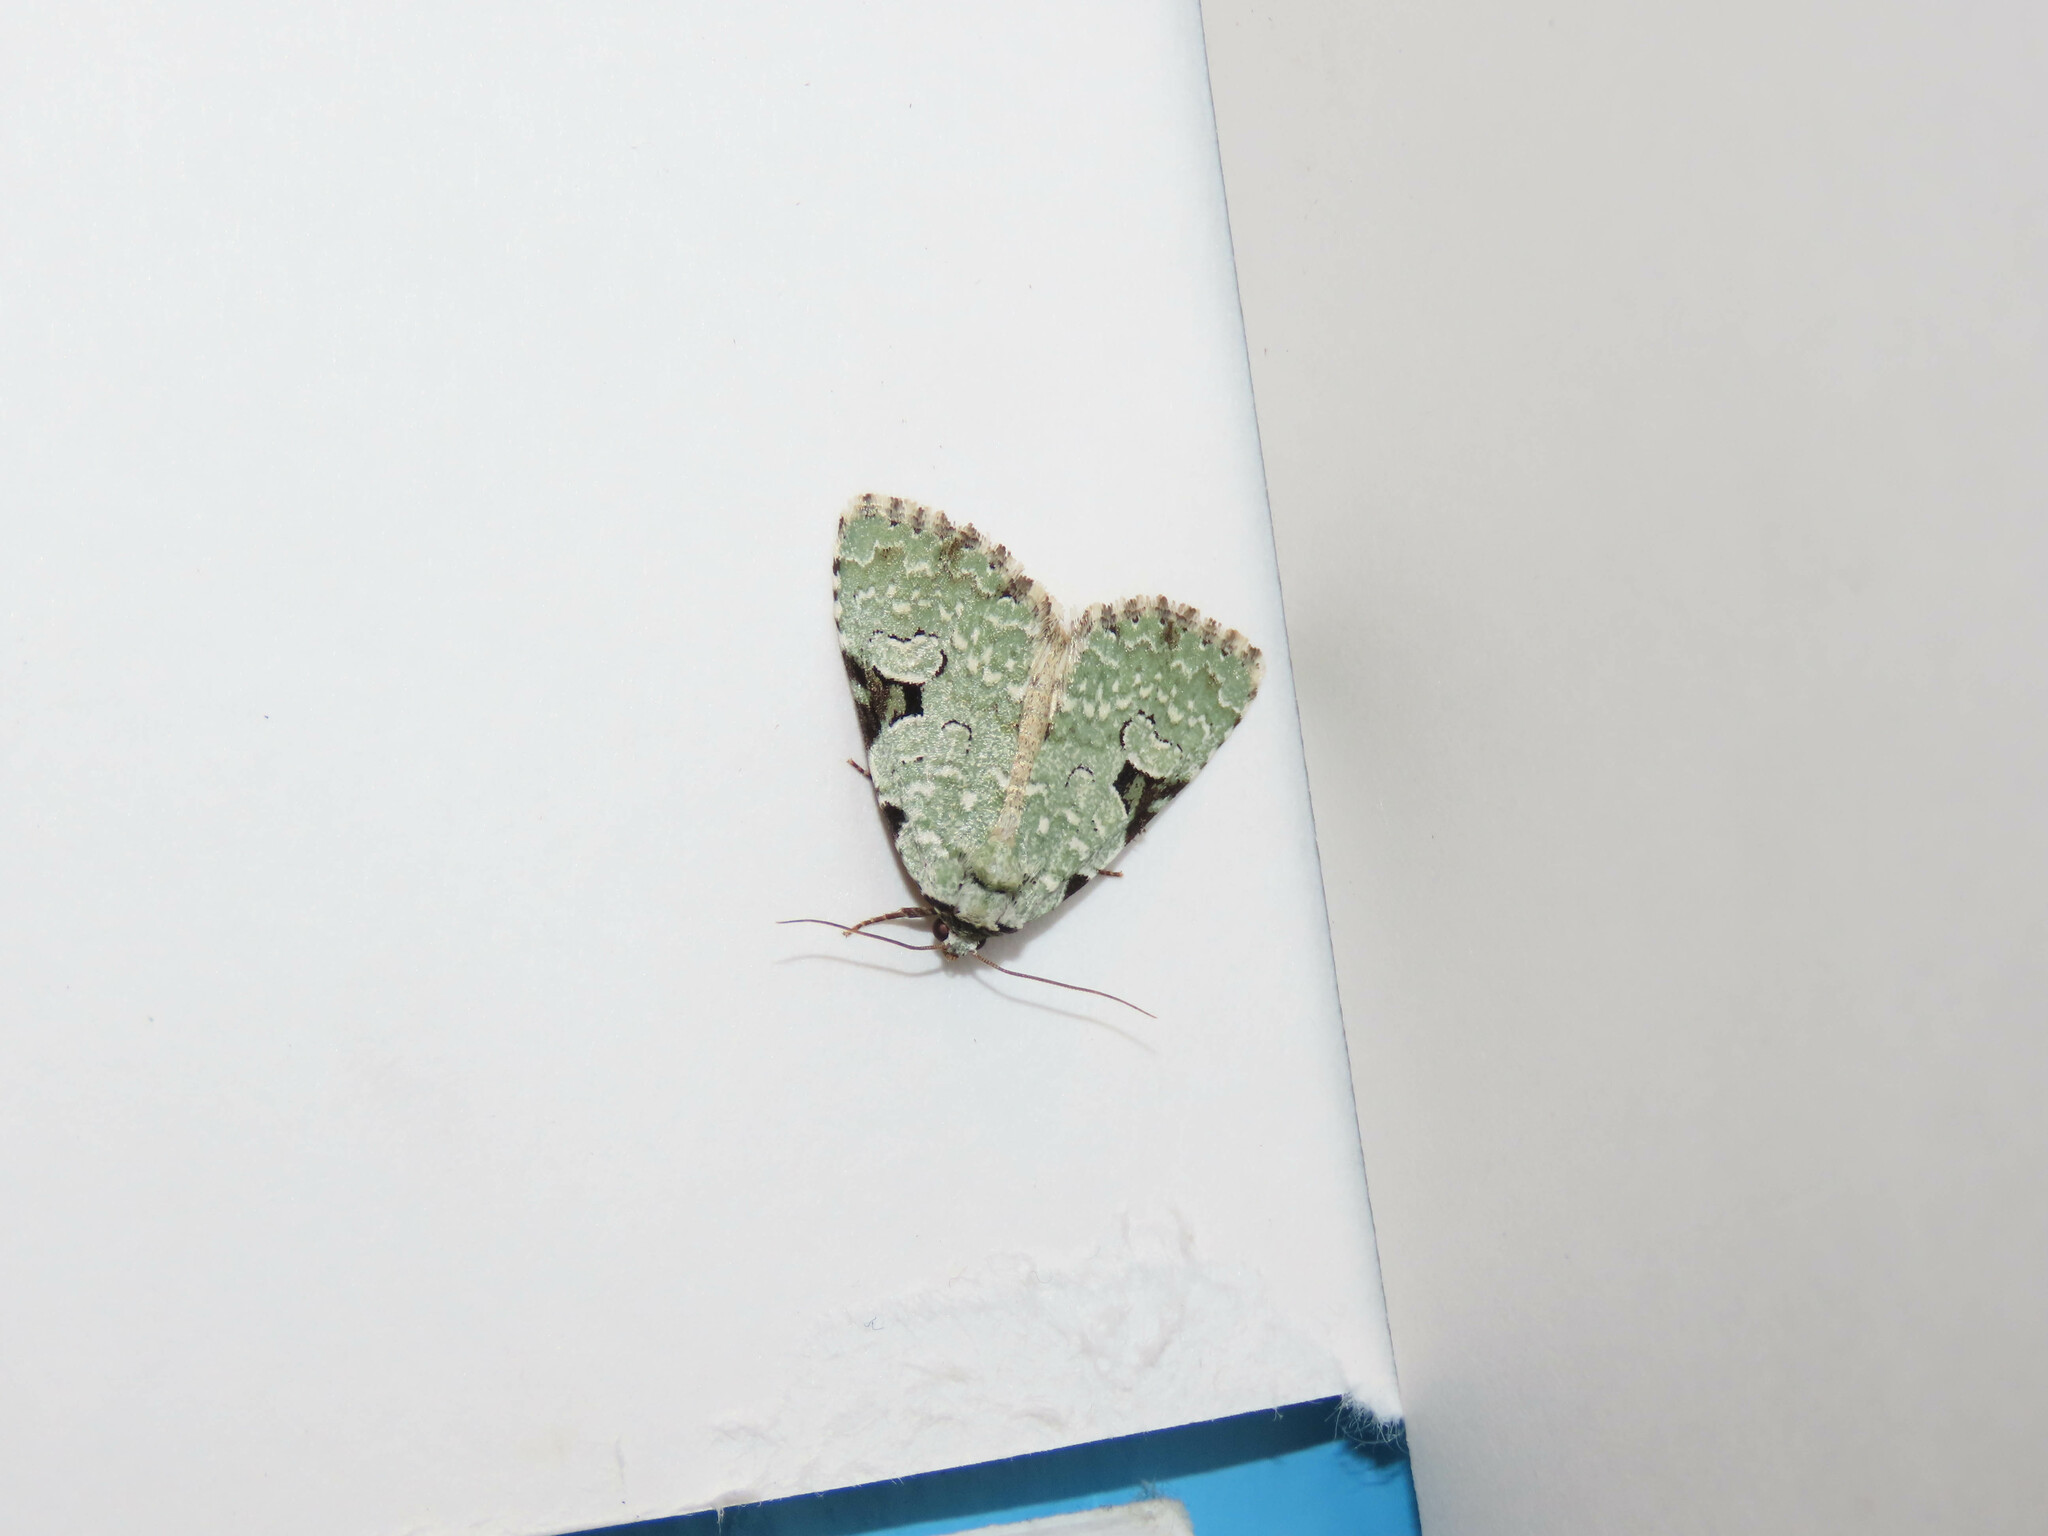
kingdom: Animalia
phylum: Arthropoda
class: Insecta
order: Lepidoptera
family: Noctuidae
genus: Leuconycta
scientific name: Leuconycta diphteroides
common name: Green leuconycta moth
